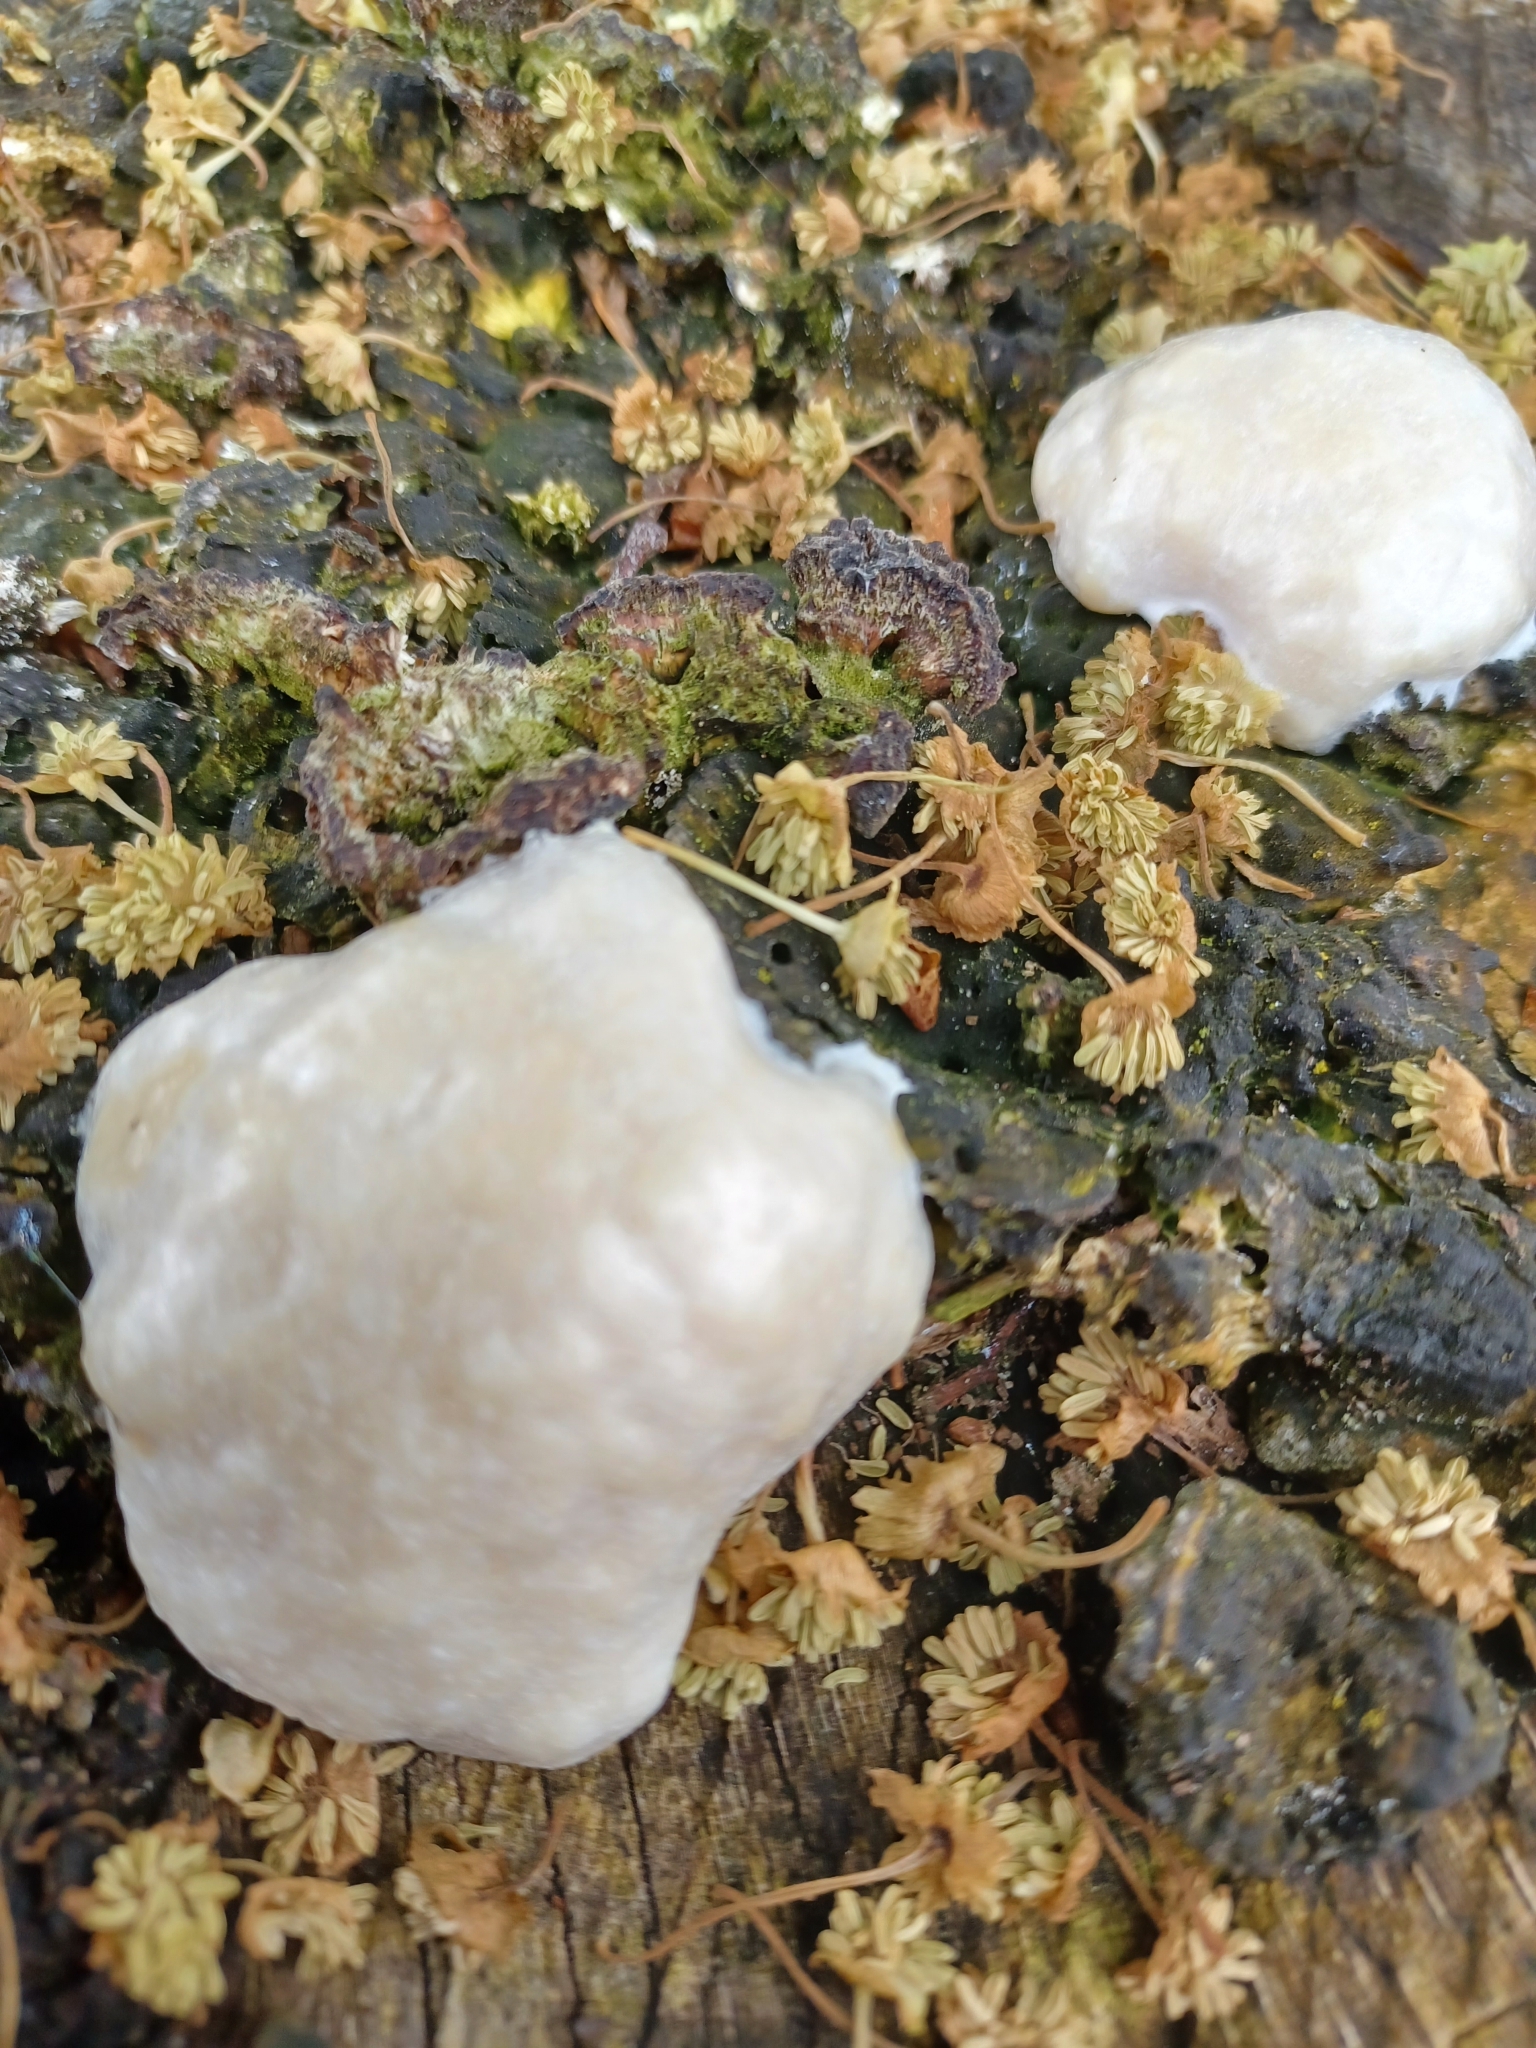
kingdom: Protozoa
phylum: Mycetozoa
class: Myxomycetes
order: Cribrariales
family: Tubiferaceae
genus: Reticularia
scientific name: Reticularia lycoperdon
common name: False puffball
